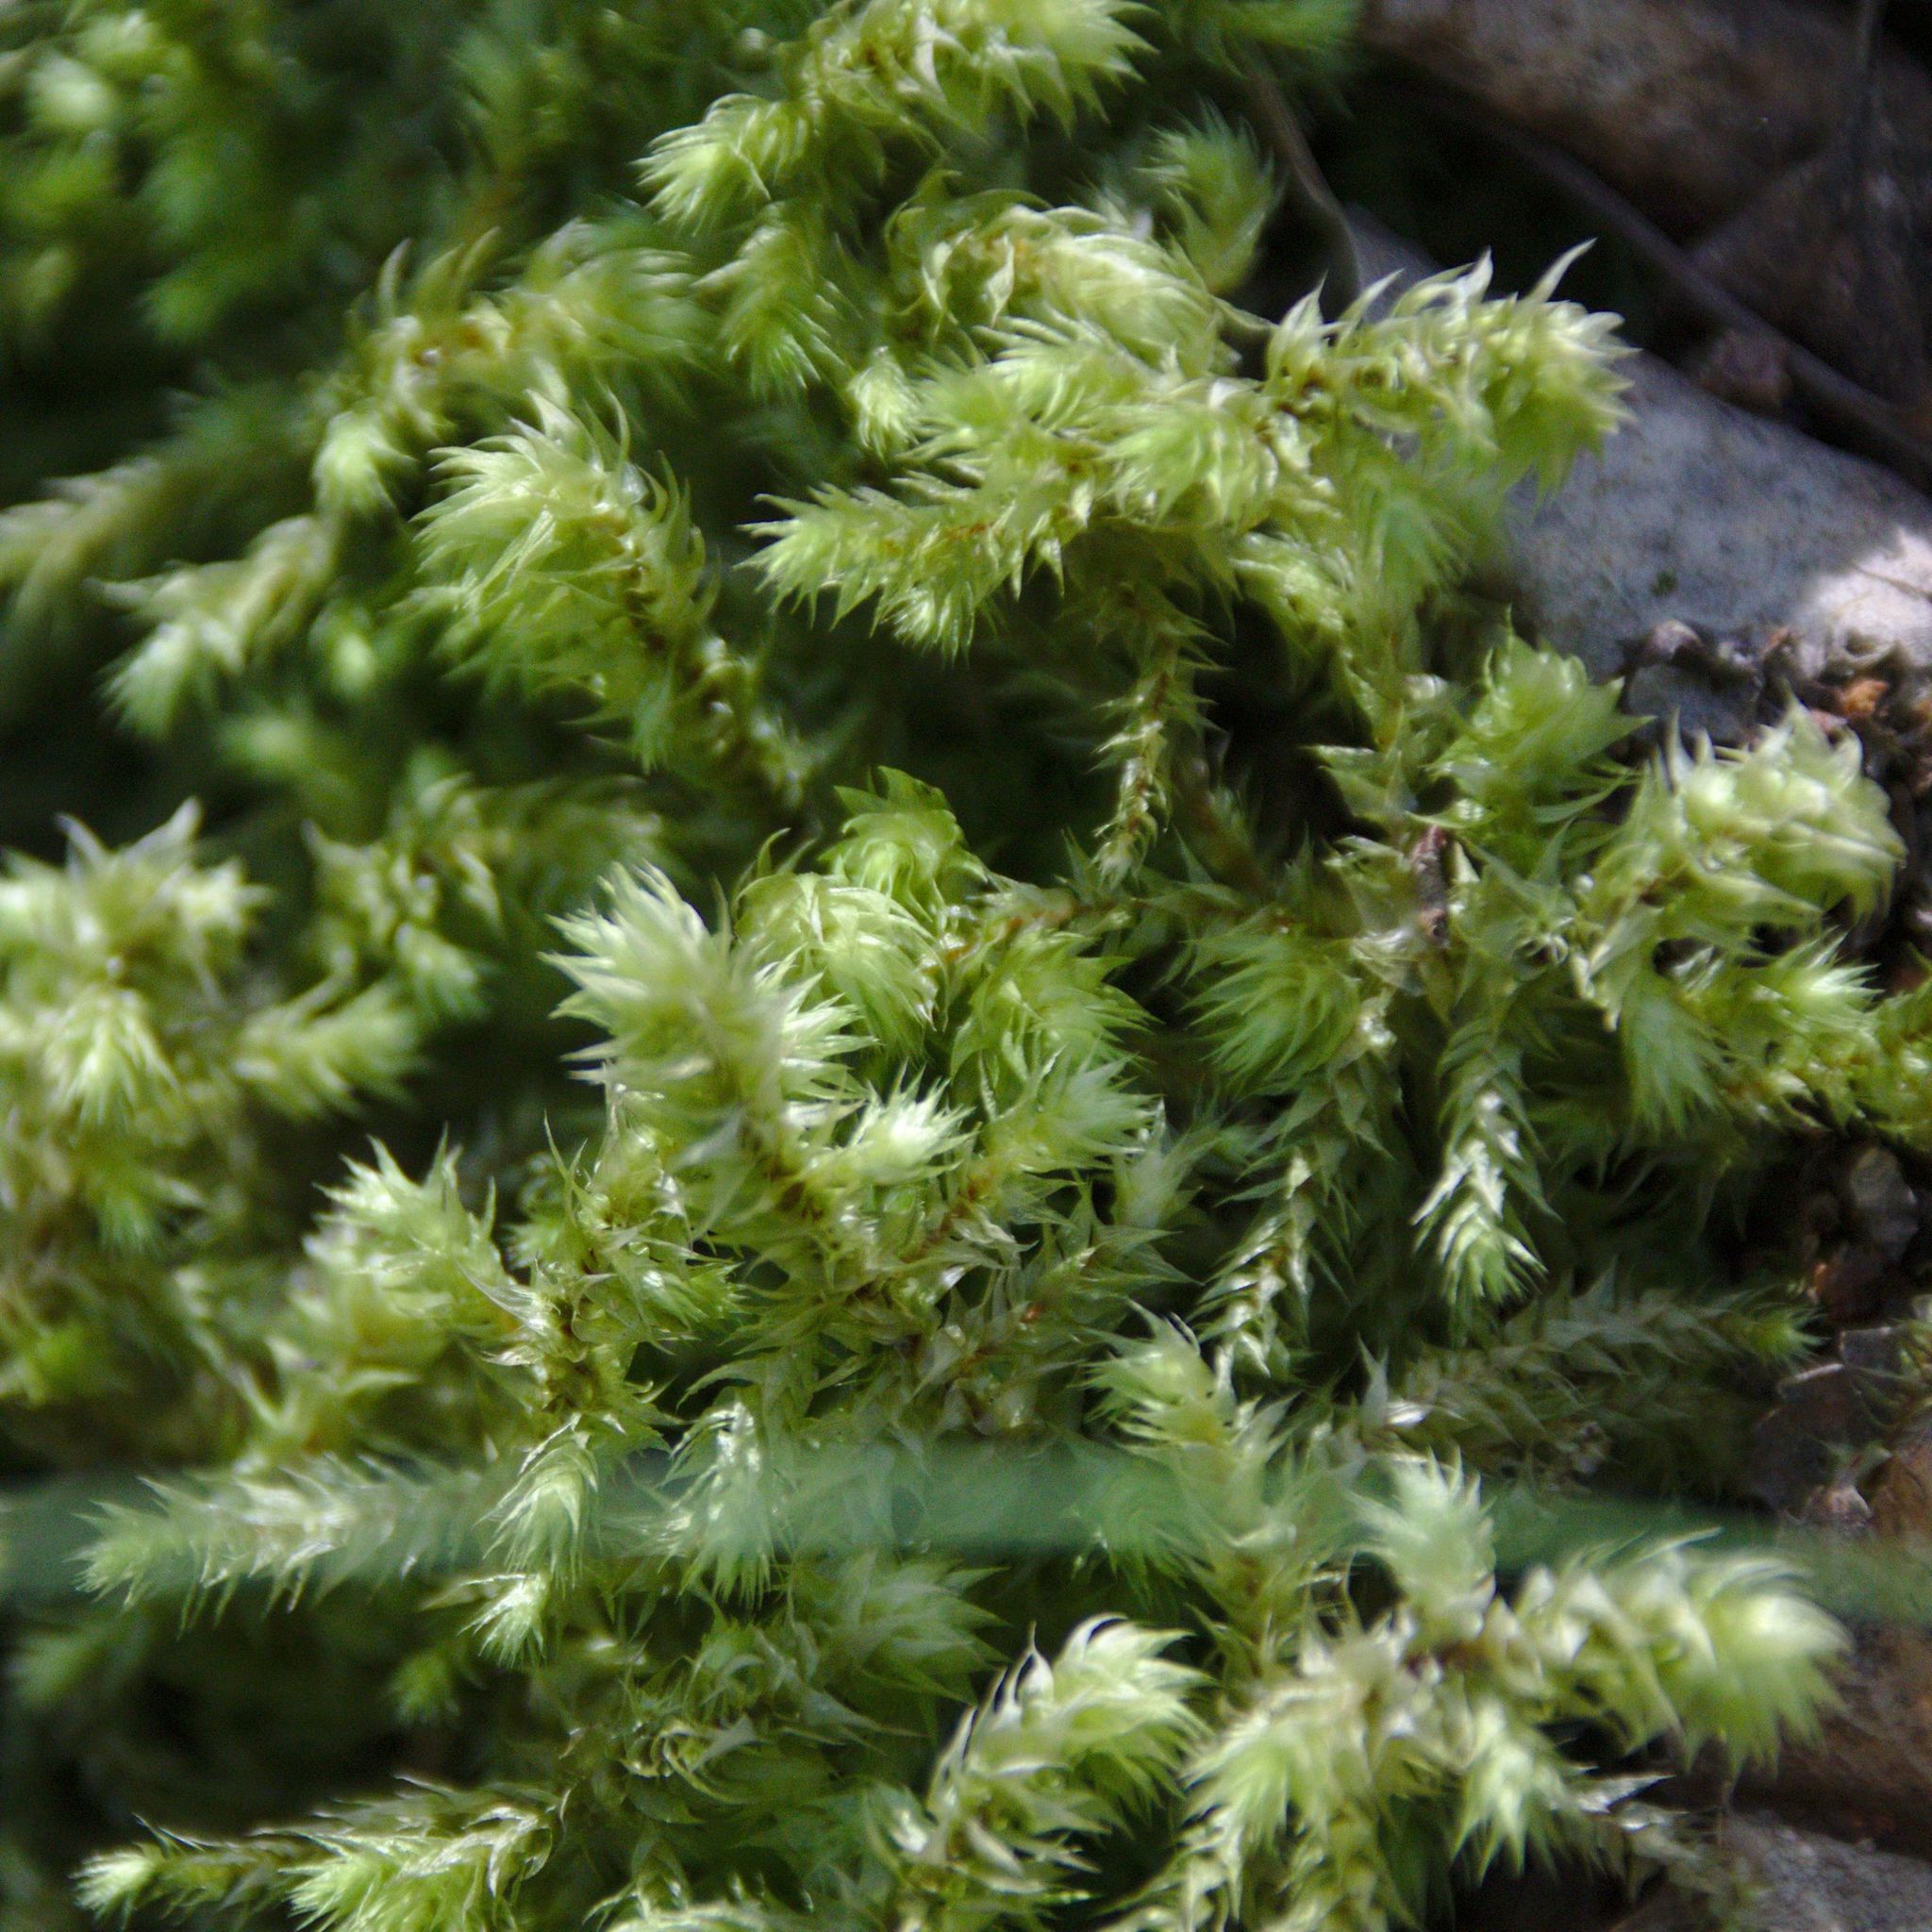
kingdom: Plantae
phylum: Bryophyta
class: Bryopsida
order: Hypnales
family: Hylocomiaceae
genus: Hylocomiadelphus
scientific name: Hylocomiadelphus triquetrus
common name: Rough goose neck moss
